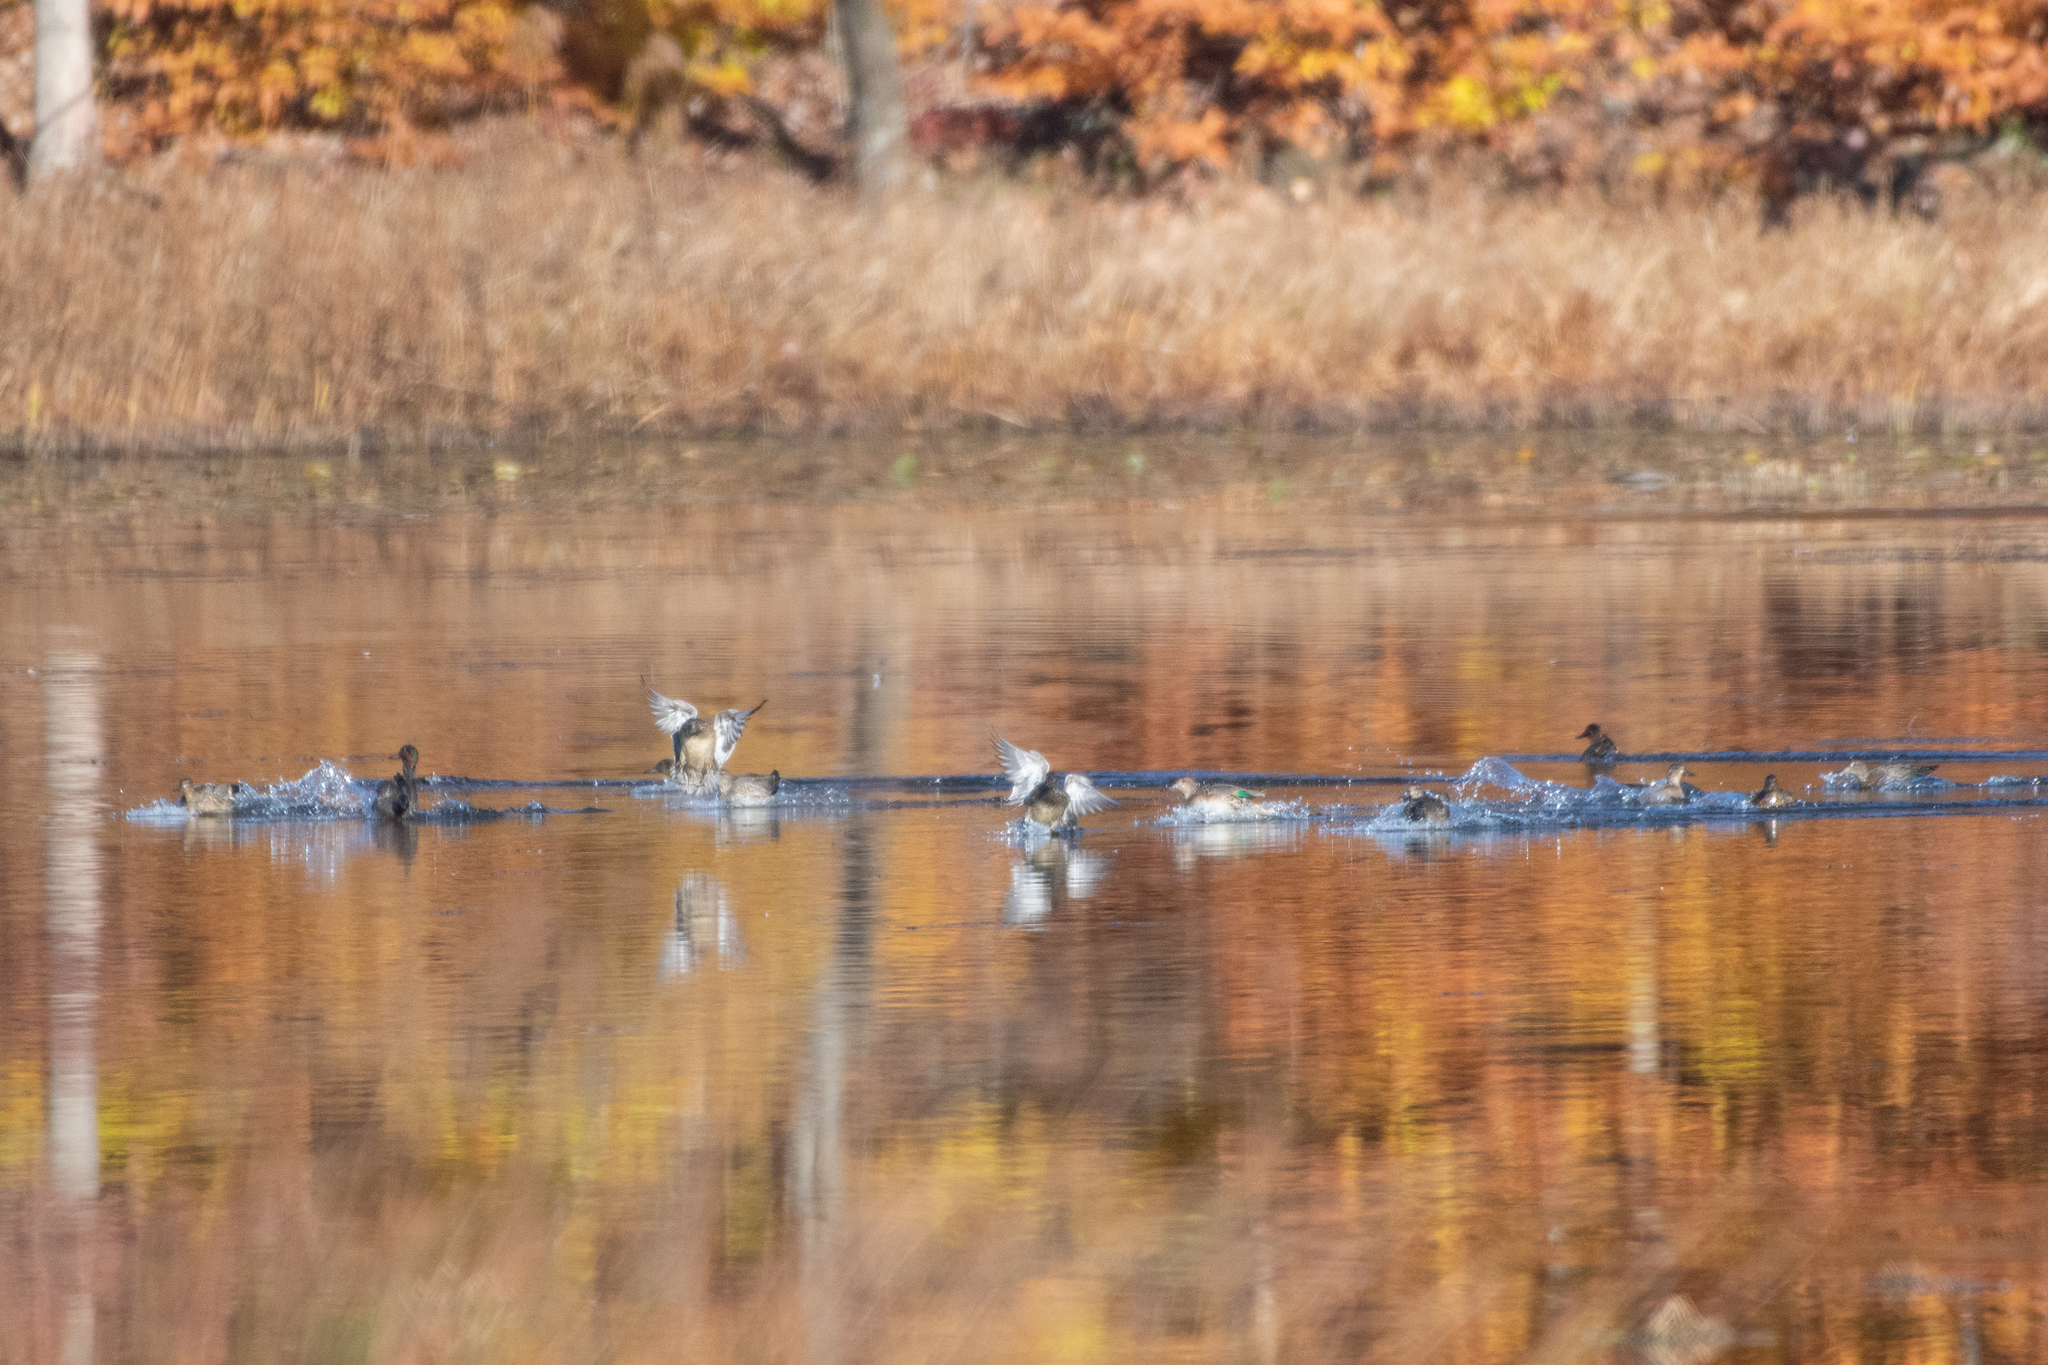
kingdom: Animalia
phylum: Chordata
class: Aves
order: Anseriformes
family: Anatidae
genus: Anas
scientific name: Anas crecca
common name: Eurasian teal
